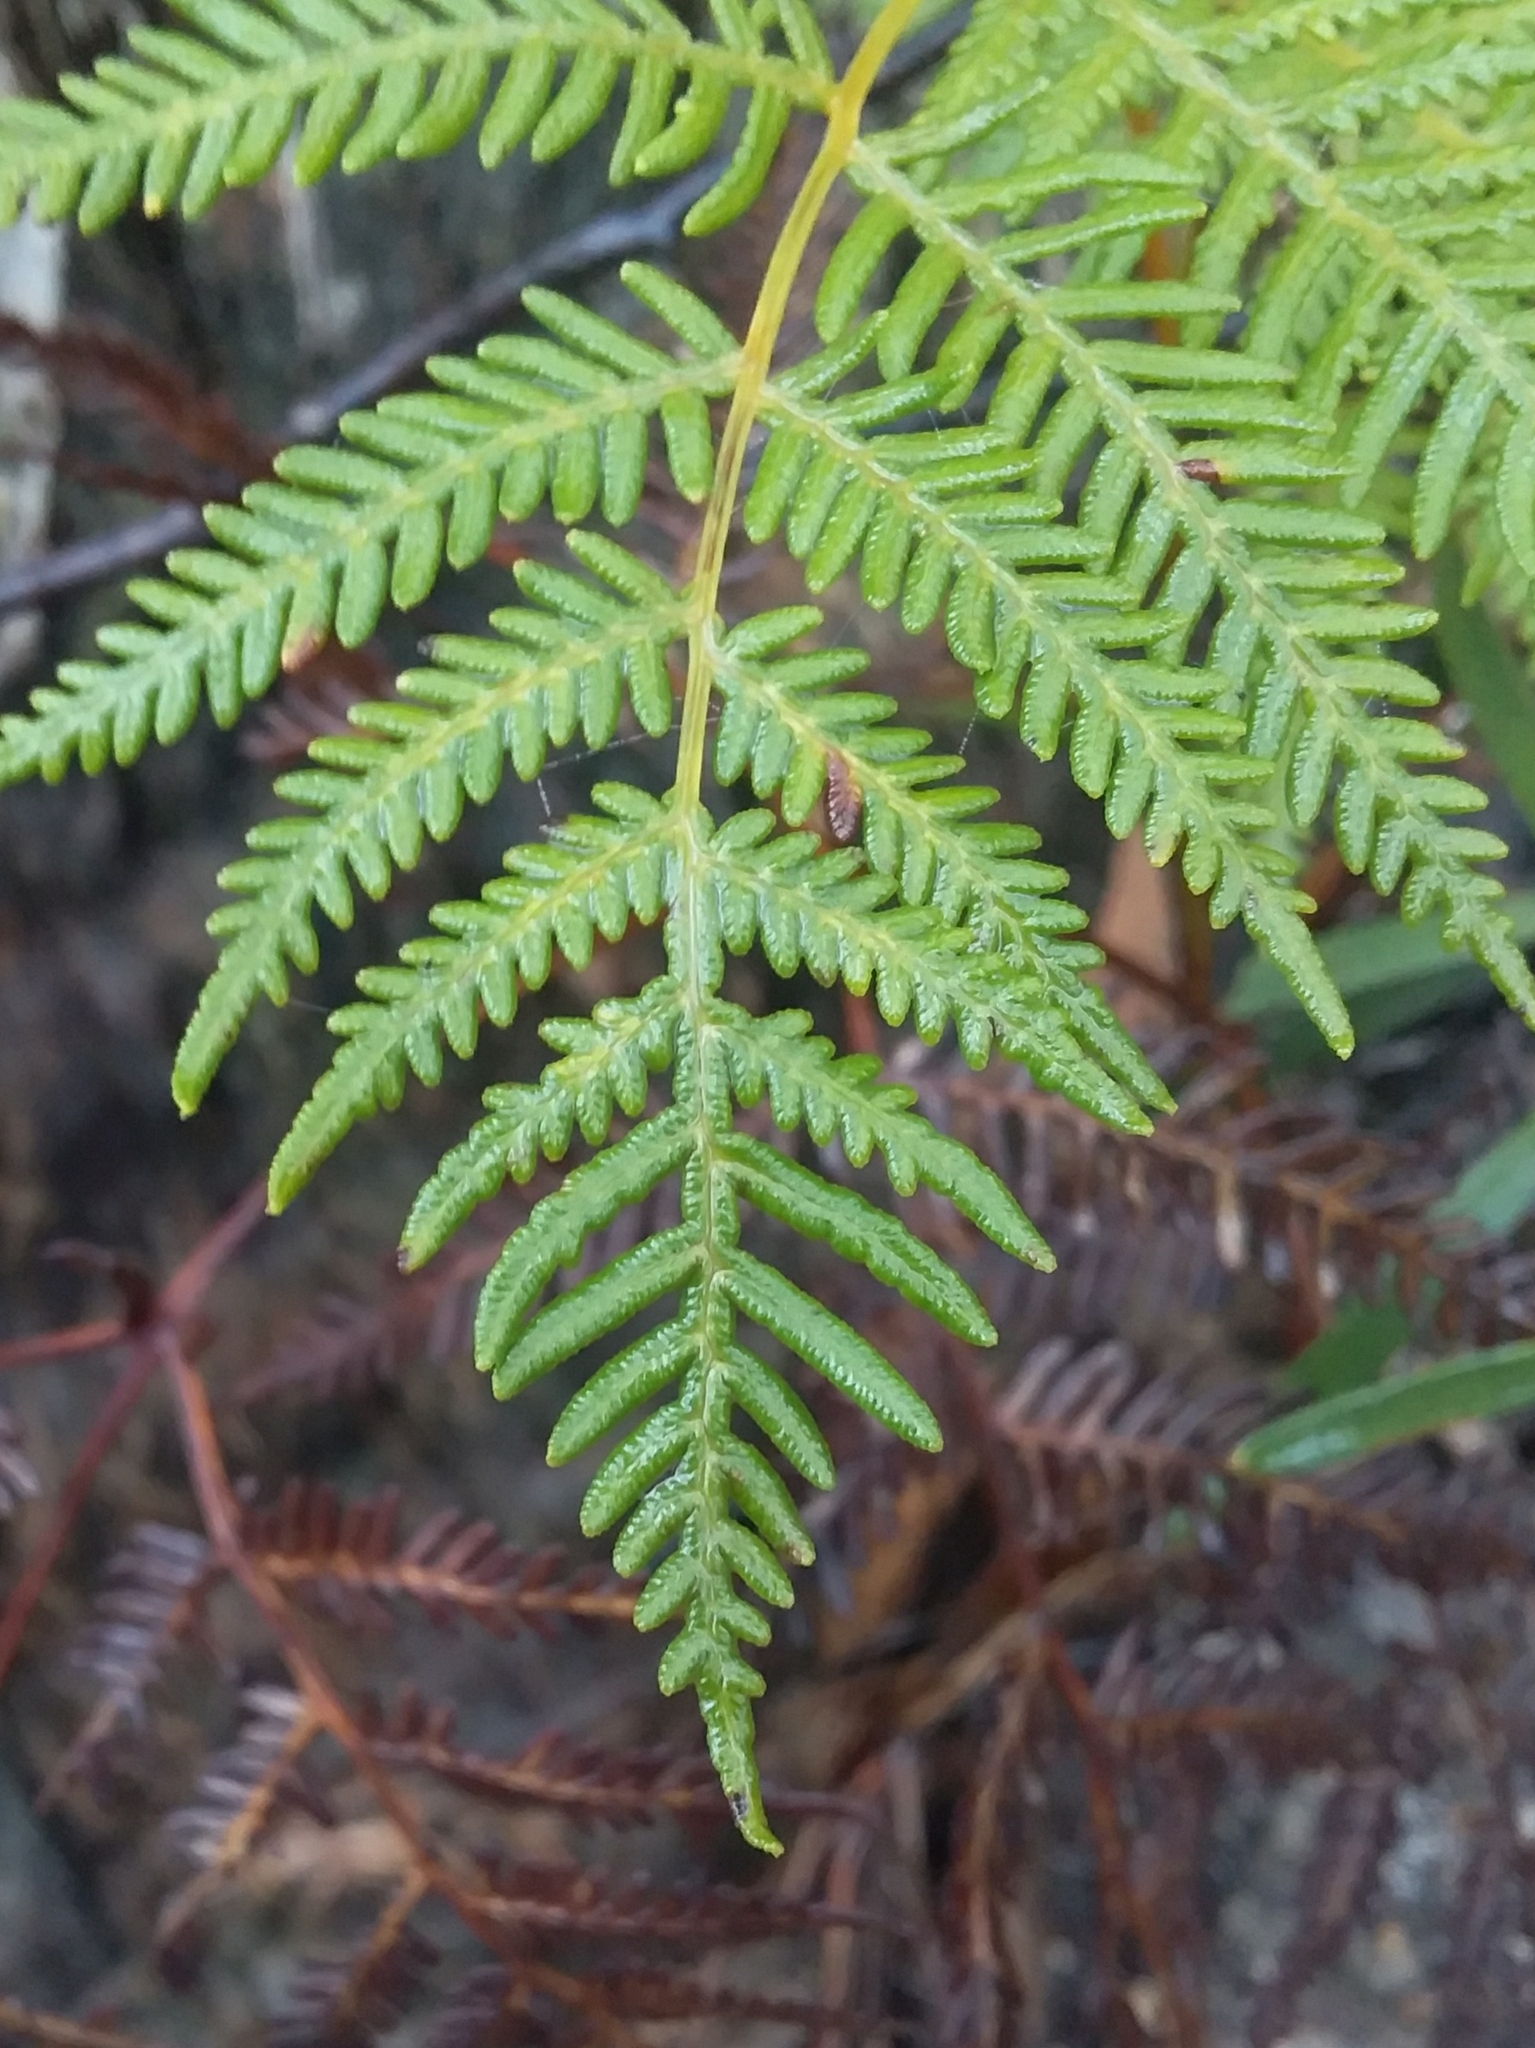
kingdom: Plantae
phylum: Tracheophyta
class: Polypodiopsida
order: Polypodiales
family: Dennstaedtiaceae
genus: Pteridium
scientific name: Pteridium esculentum
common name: Bracken fern
